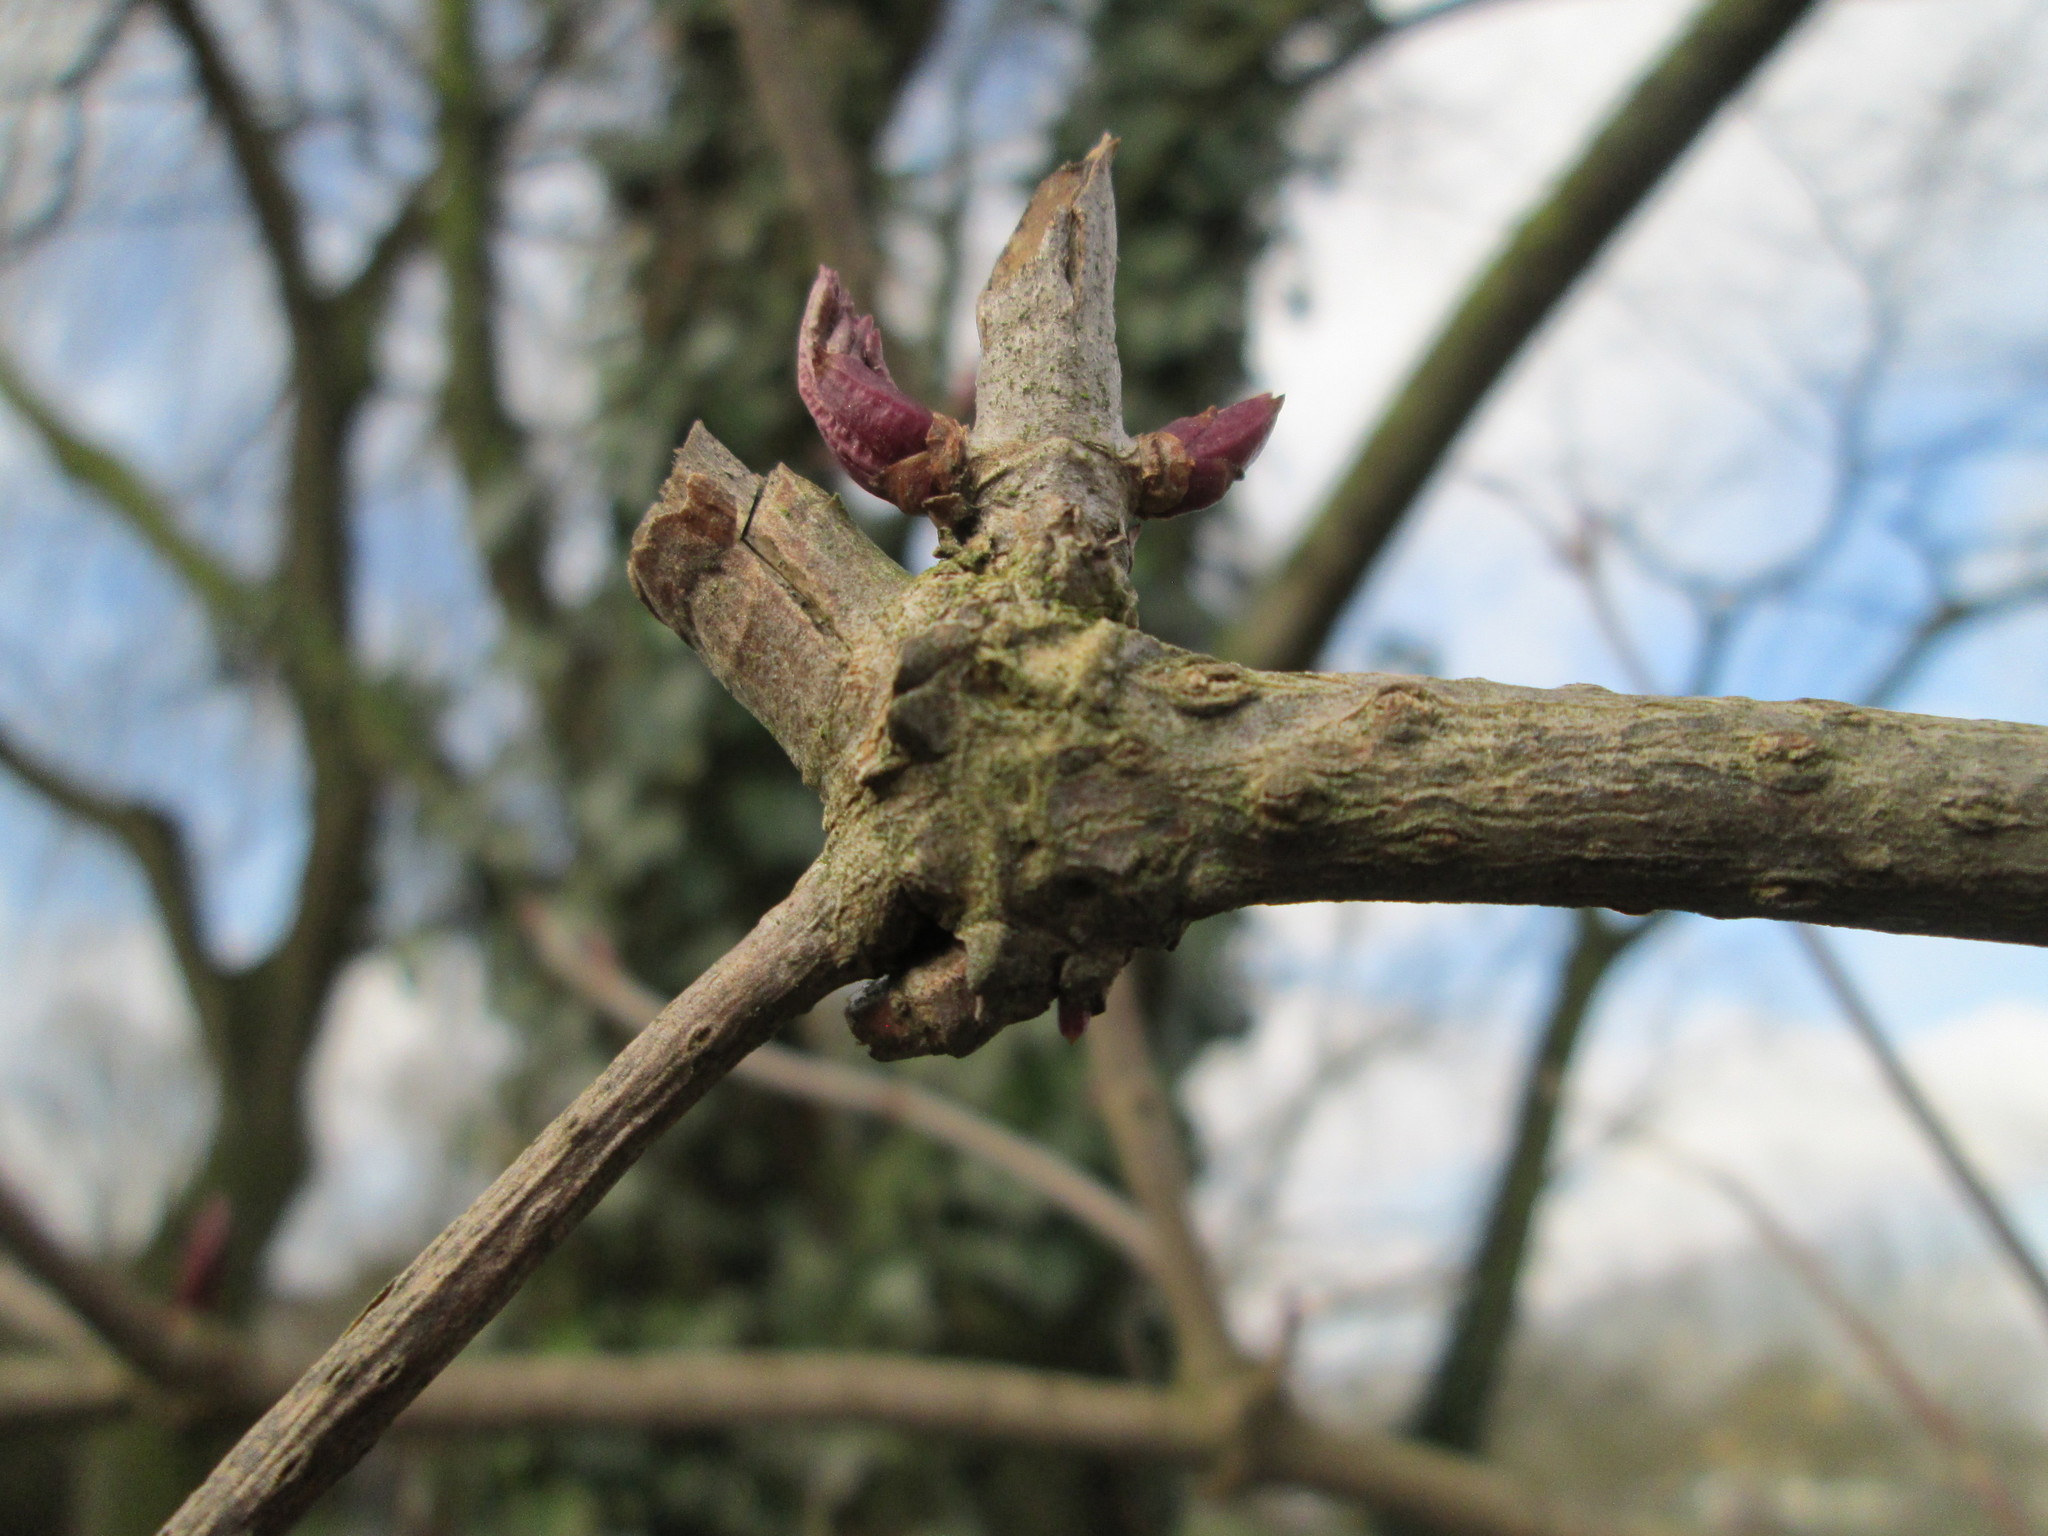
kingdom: Plantae
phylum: Tracheophyta
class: Magnoliopsida
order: Dipsacales
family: Viburnaceae
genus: Sambucus
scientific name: Sambucus nigra
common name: Elder
